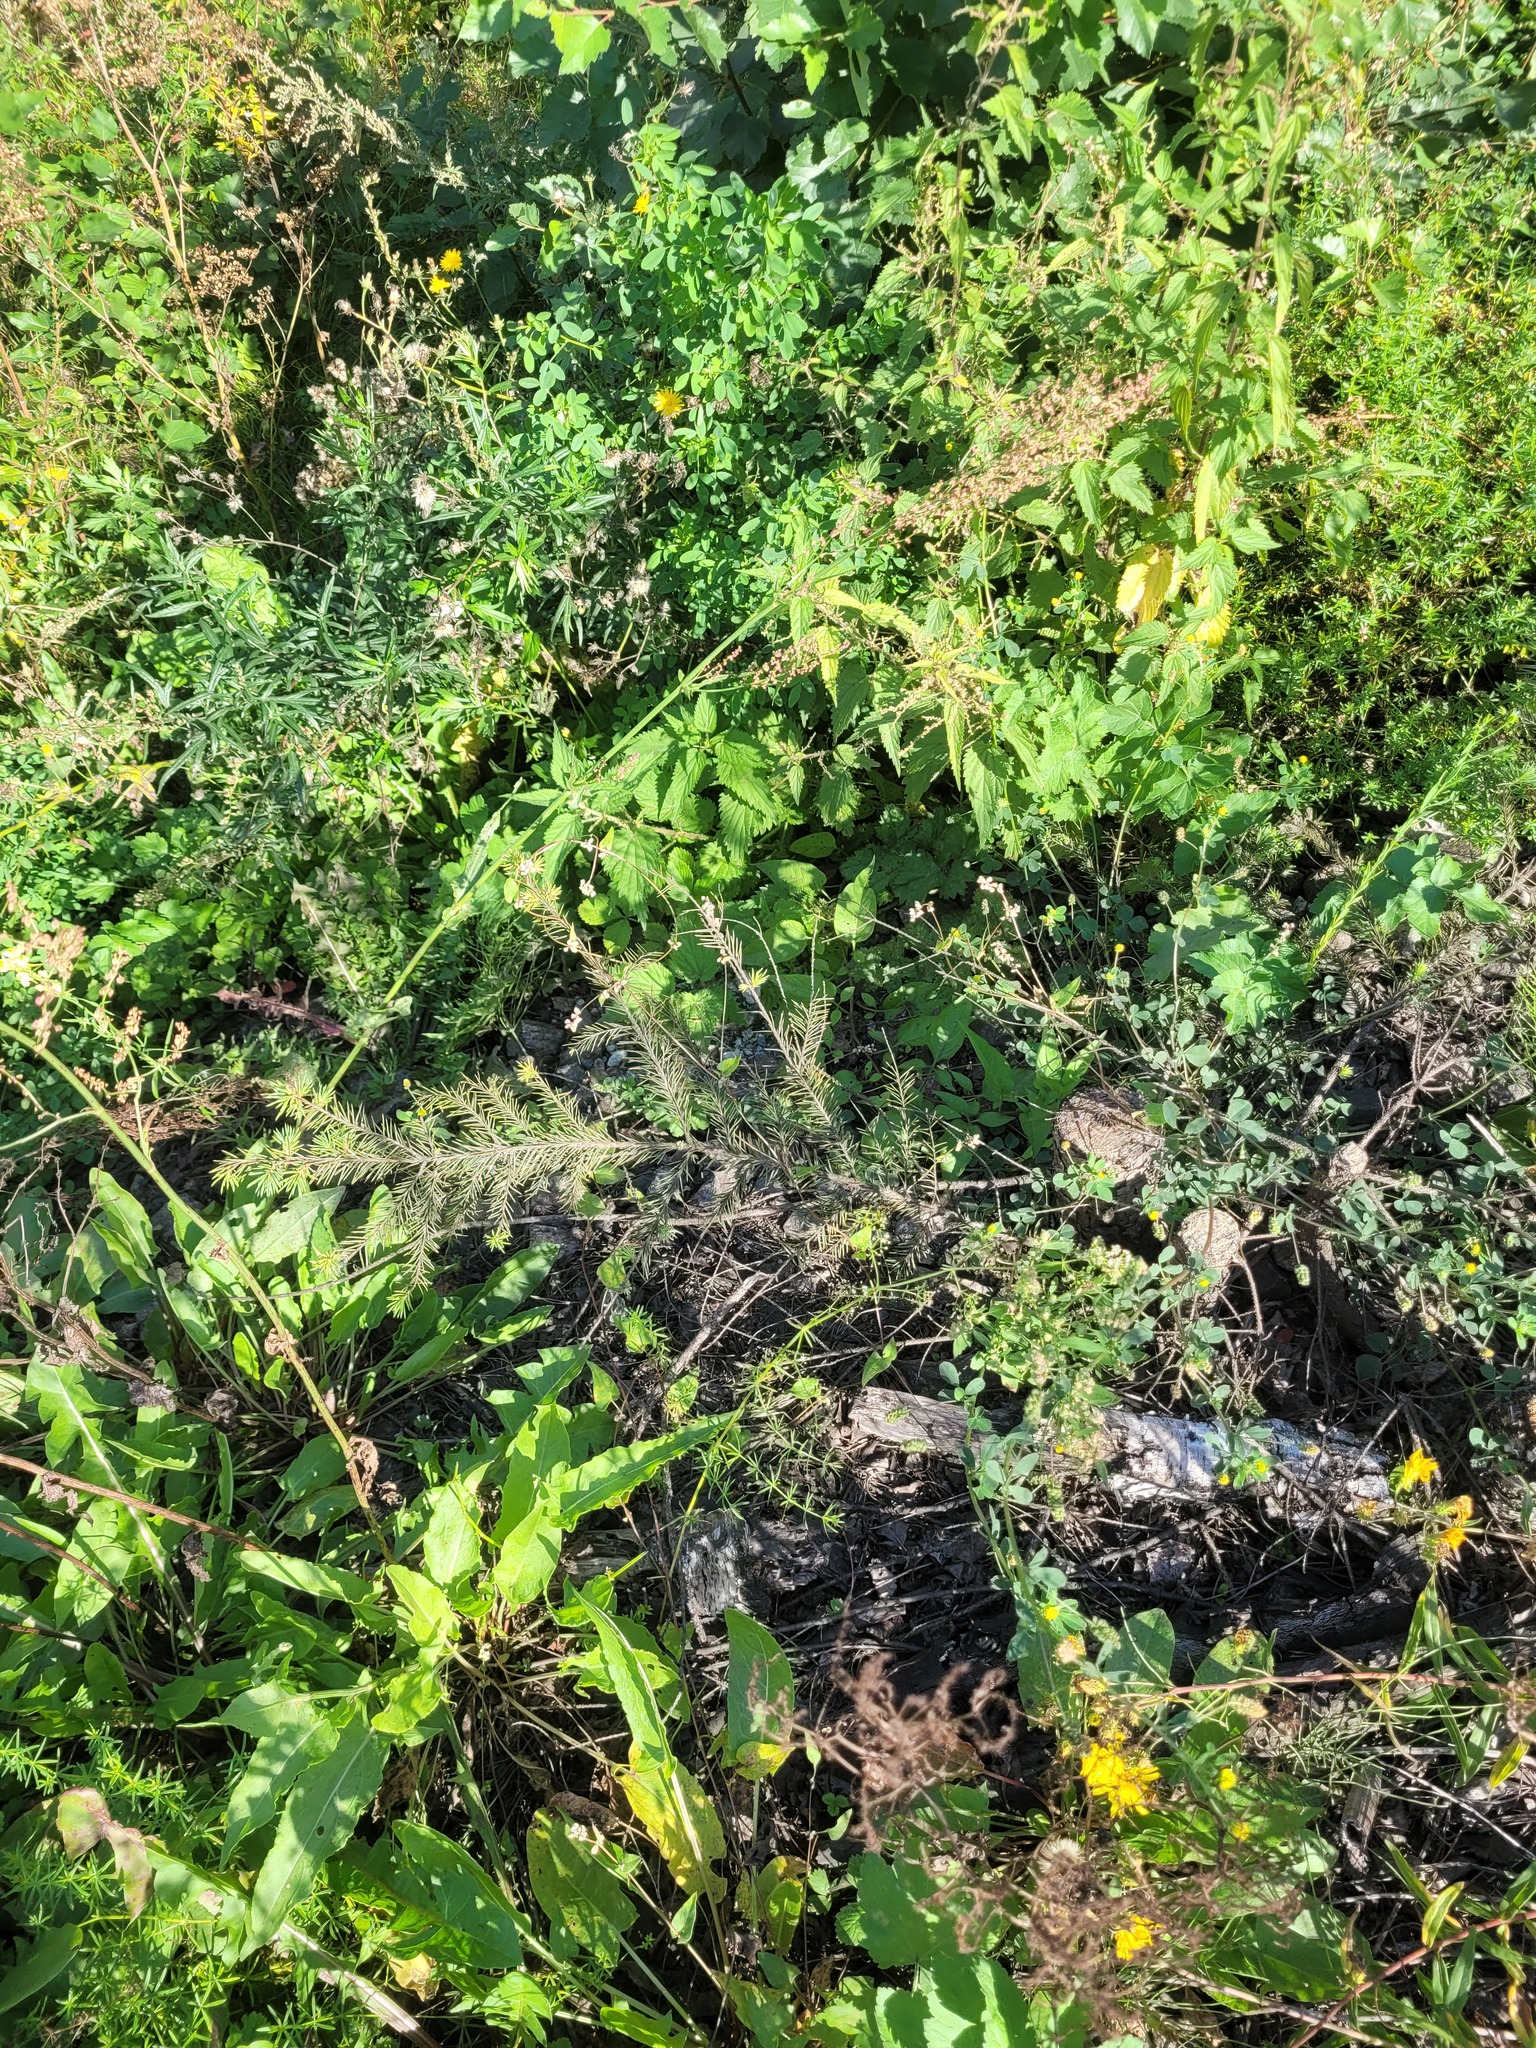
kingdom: Plantae
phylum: Tracheophyta
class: Pinopsida
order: Pinales
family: Pinaceae
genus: Picea
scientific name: Picea abies
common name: Norway spruce
